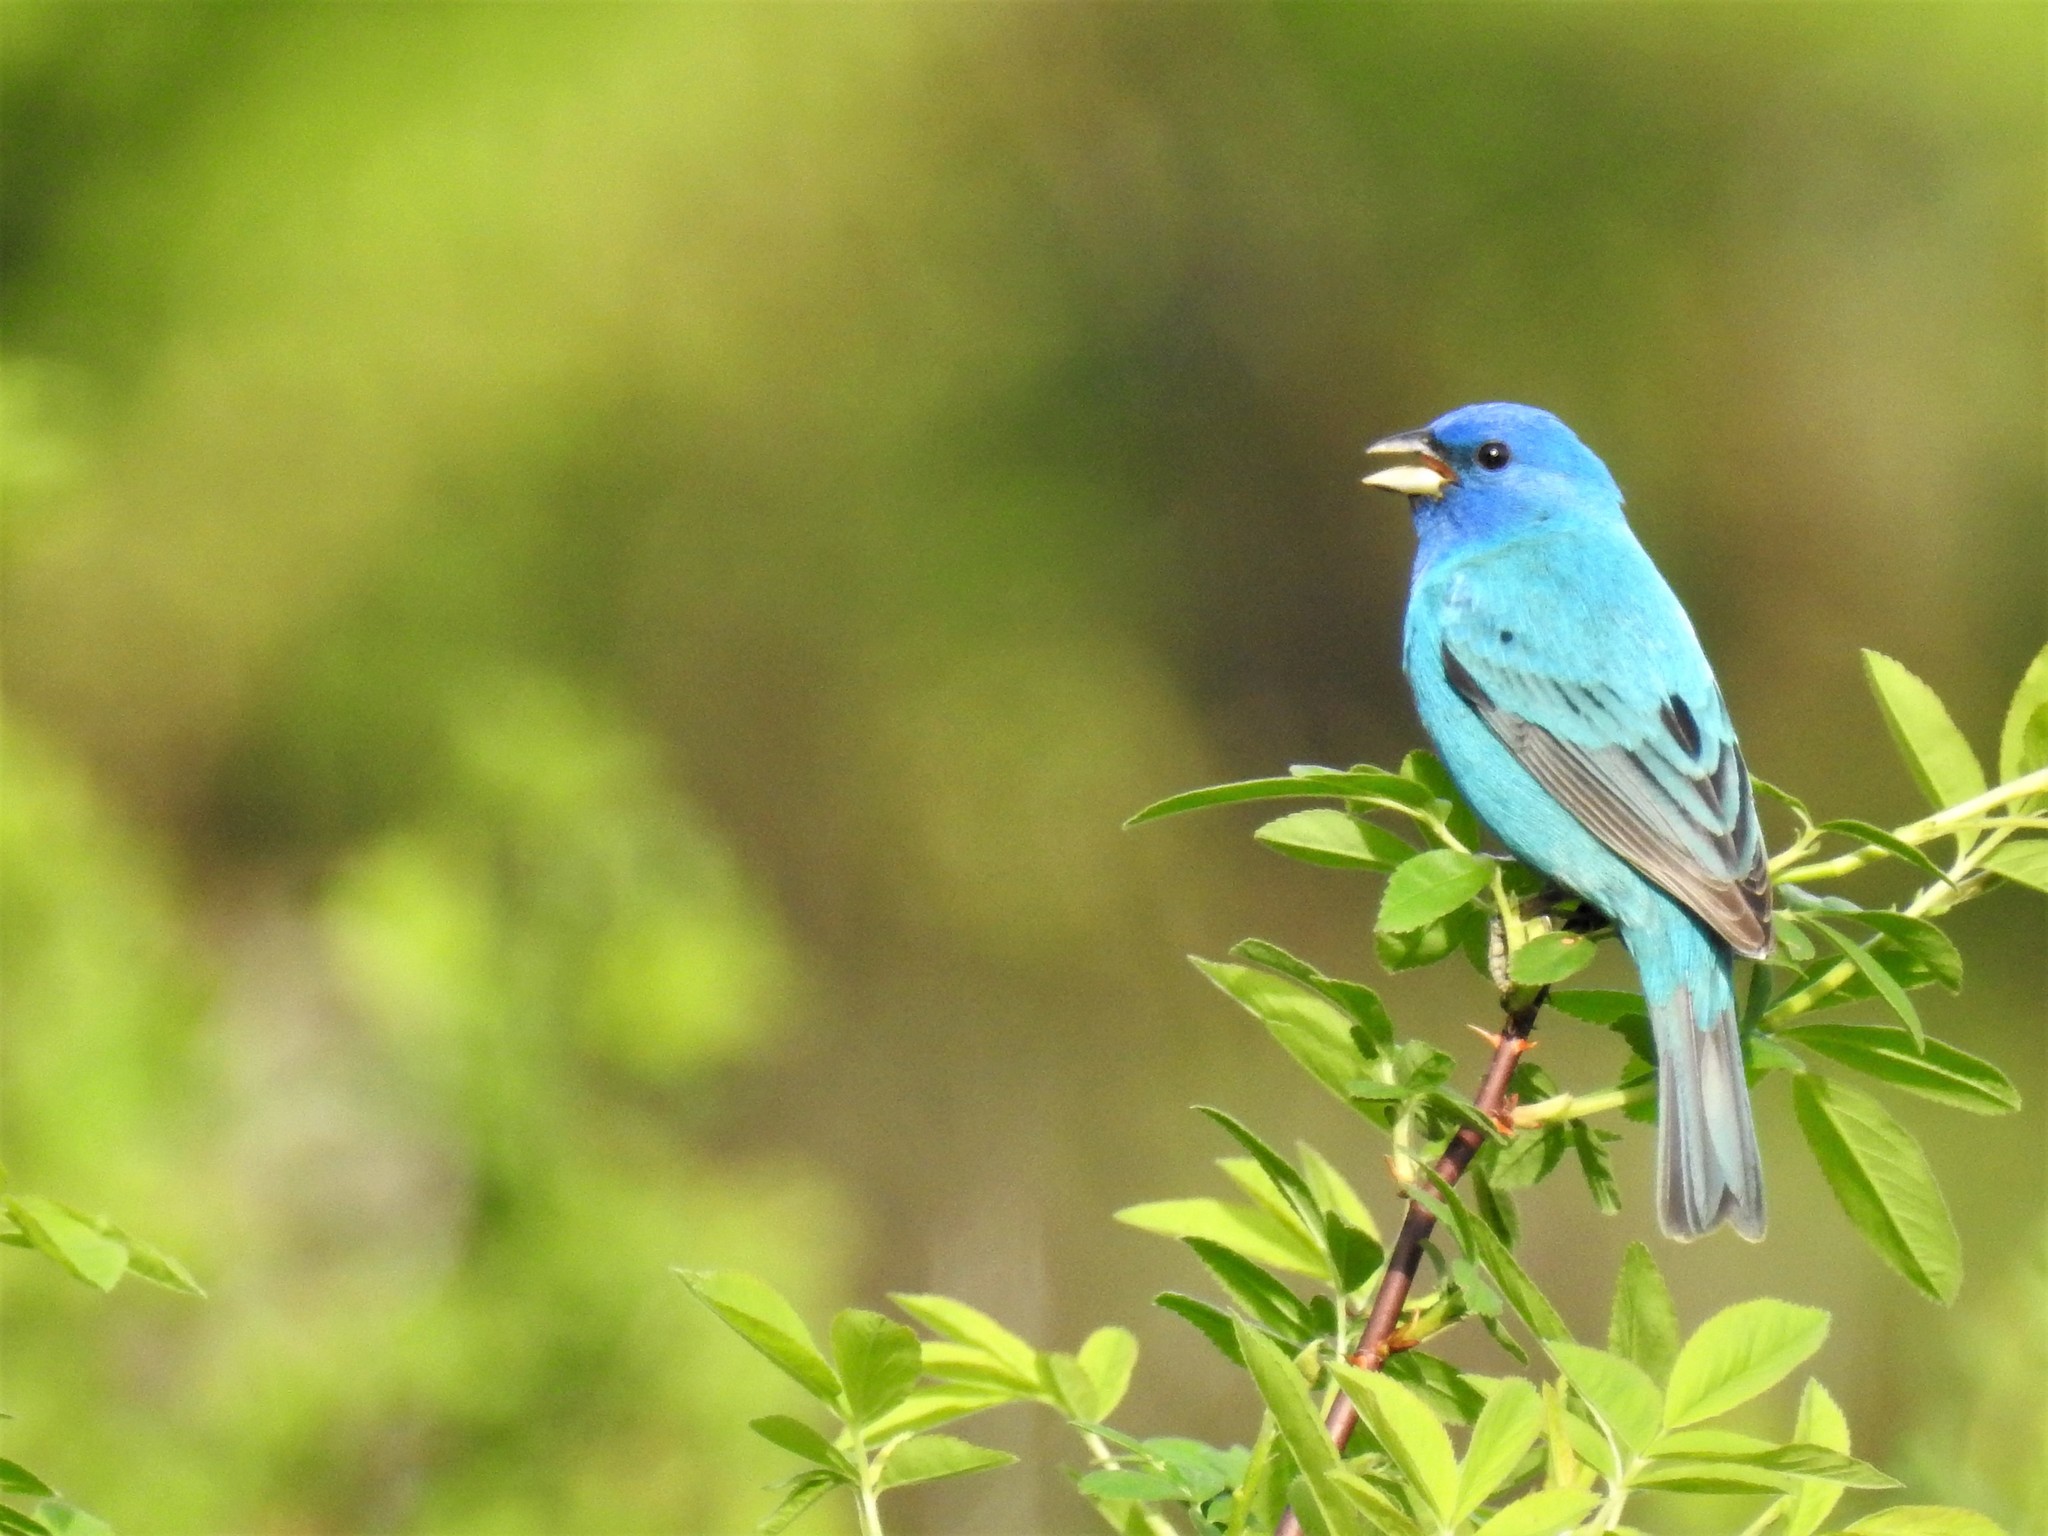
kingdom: Animalia
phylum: Chordata
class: Aves
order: Passeriformes
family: Cardinalidae
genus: Passerina
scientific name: Passerina cyanea
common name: Indigo bunting
